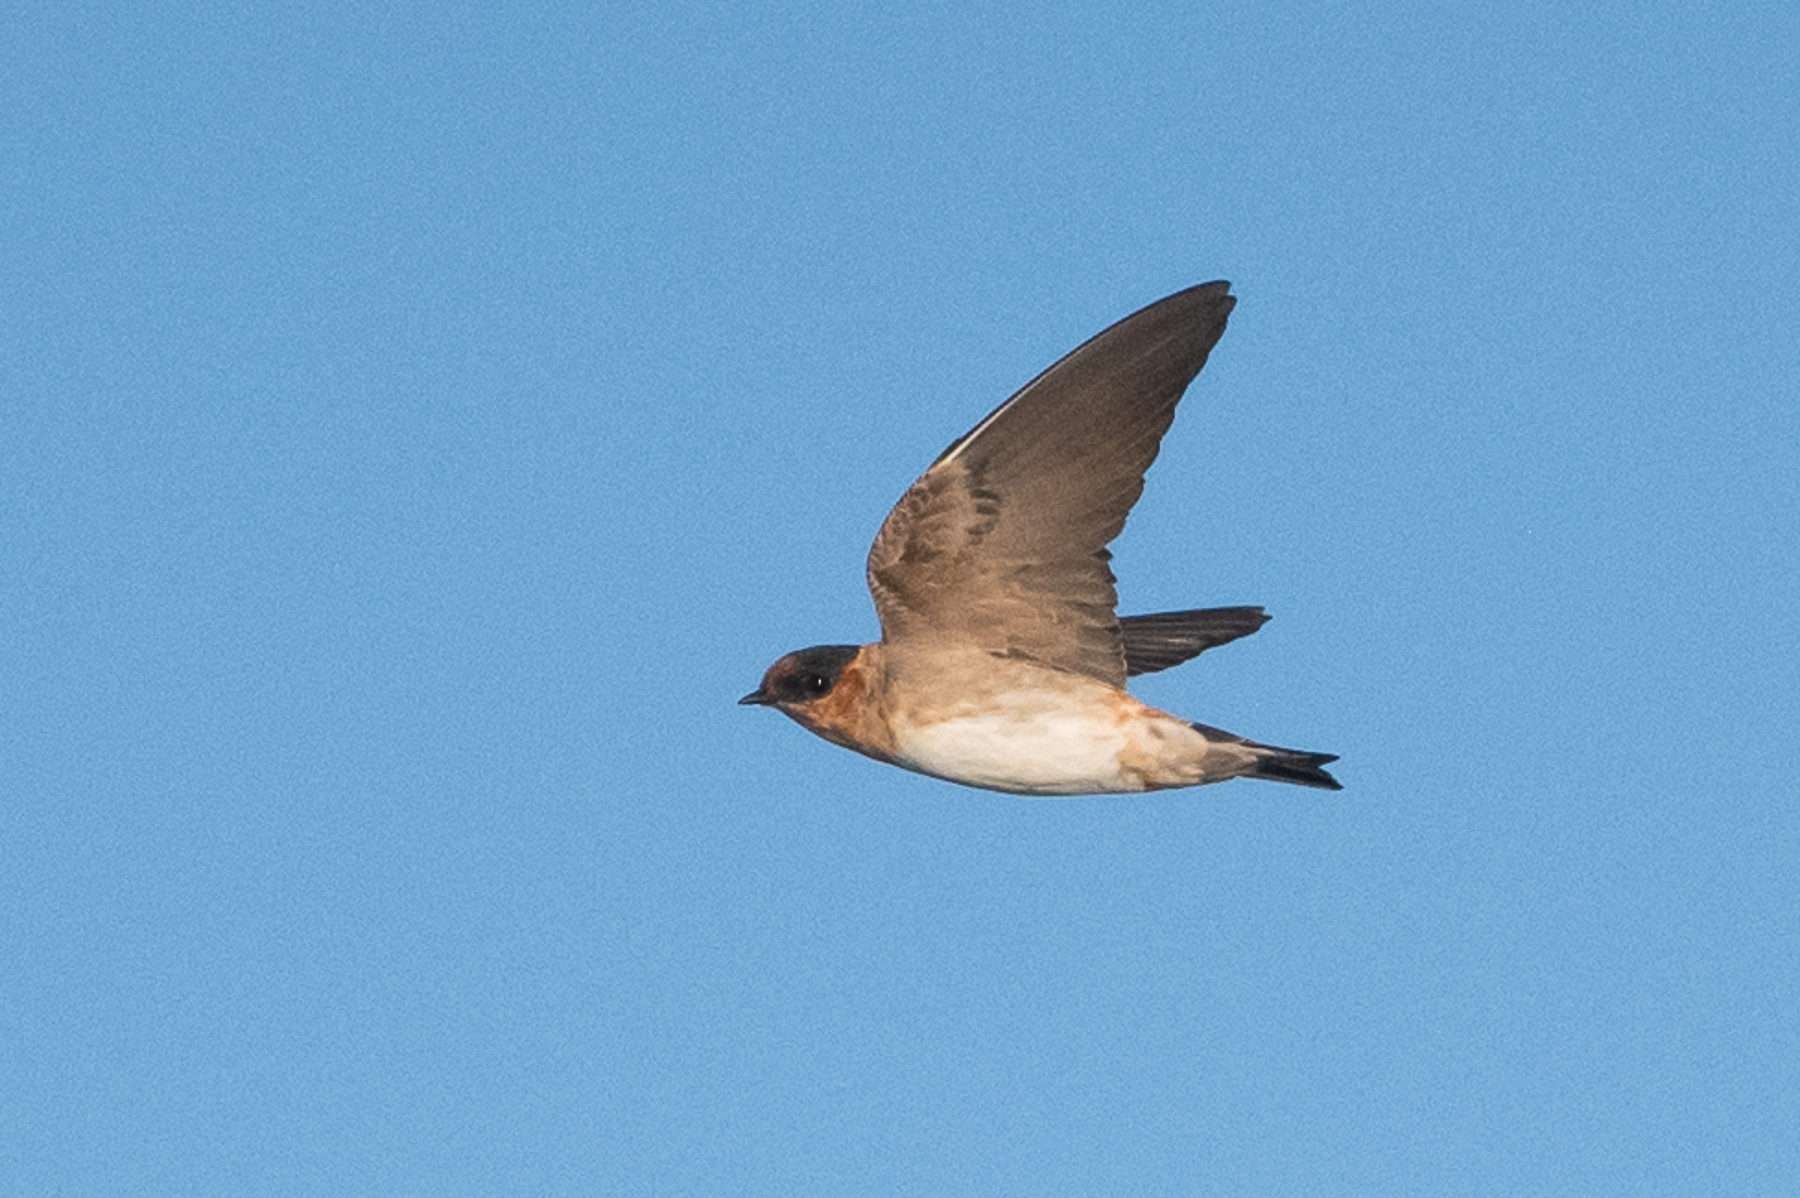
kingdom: Animalia
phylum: Chordata
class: Aves
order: Passeriformes
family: Hirundinidae
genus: Petrochelidon
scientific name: Petrochelidon fulva
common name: Cave swallow
